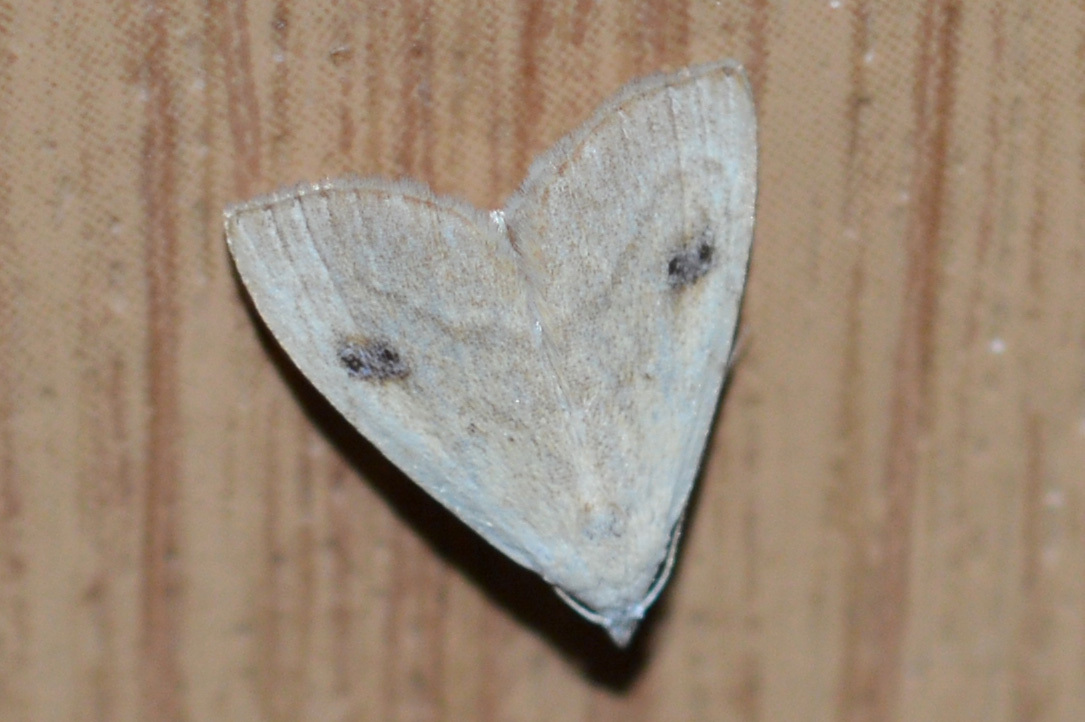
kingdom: Animalia
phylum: Arthropoda
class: Insecta
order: Lepidoptera
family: Erebidae
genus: Rivula
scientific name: Rivula sericealis
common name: Straw dot
